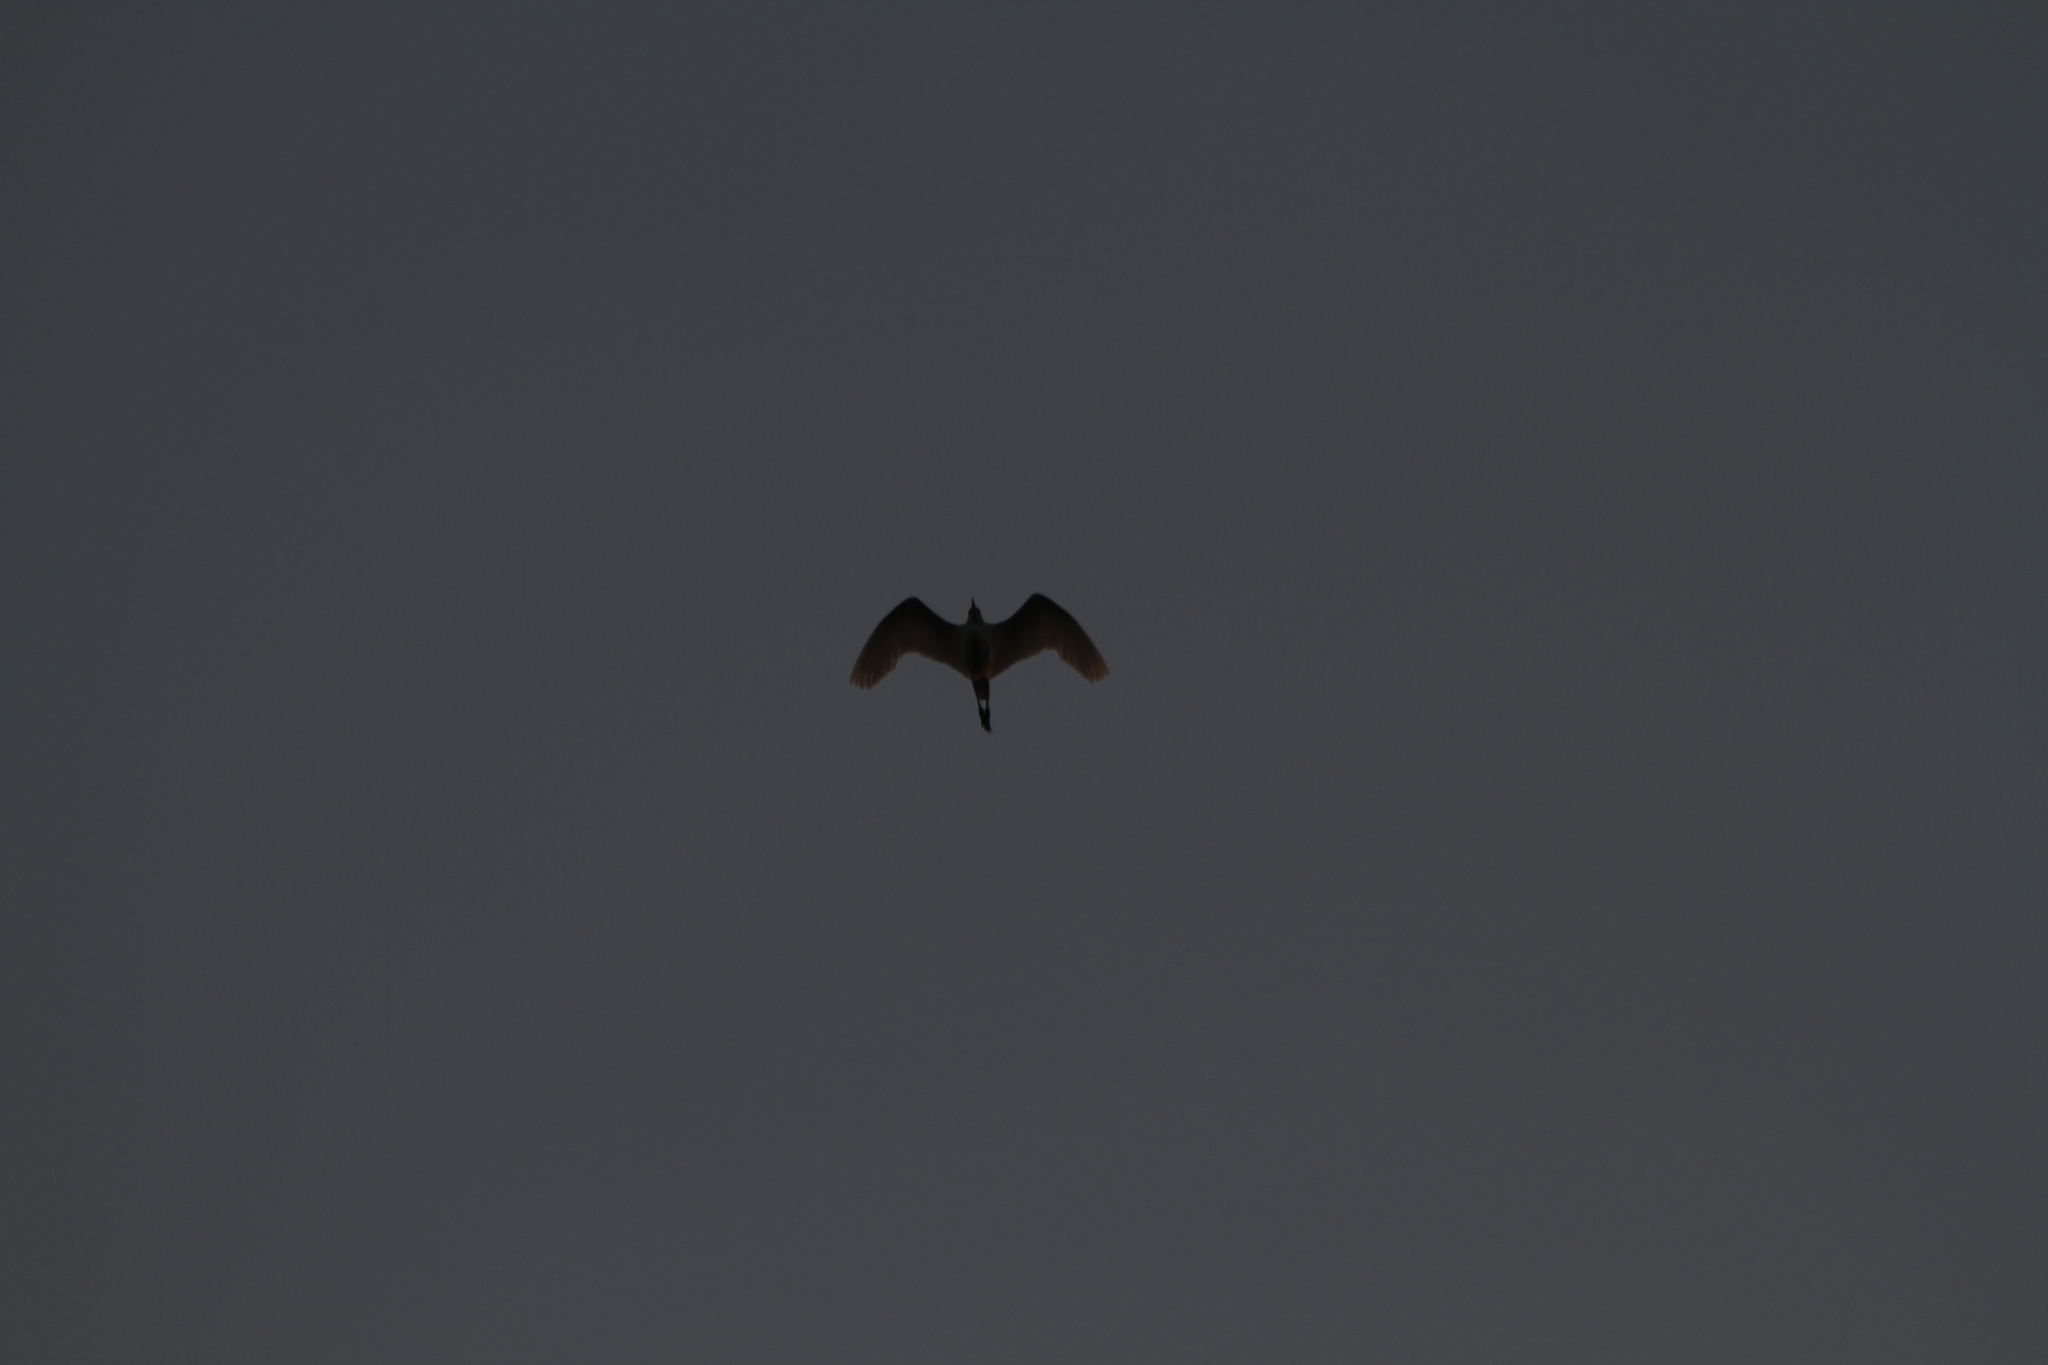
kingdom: Animalia
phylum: Chordata
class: Aves
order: Pelecaniformes
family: Ardeidae
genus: Bubulcus
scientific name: Bubulcus ibis
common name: Cattle egret
